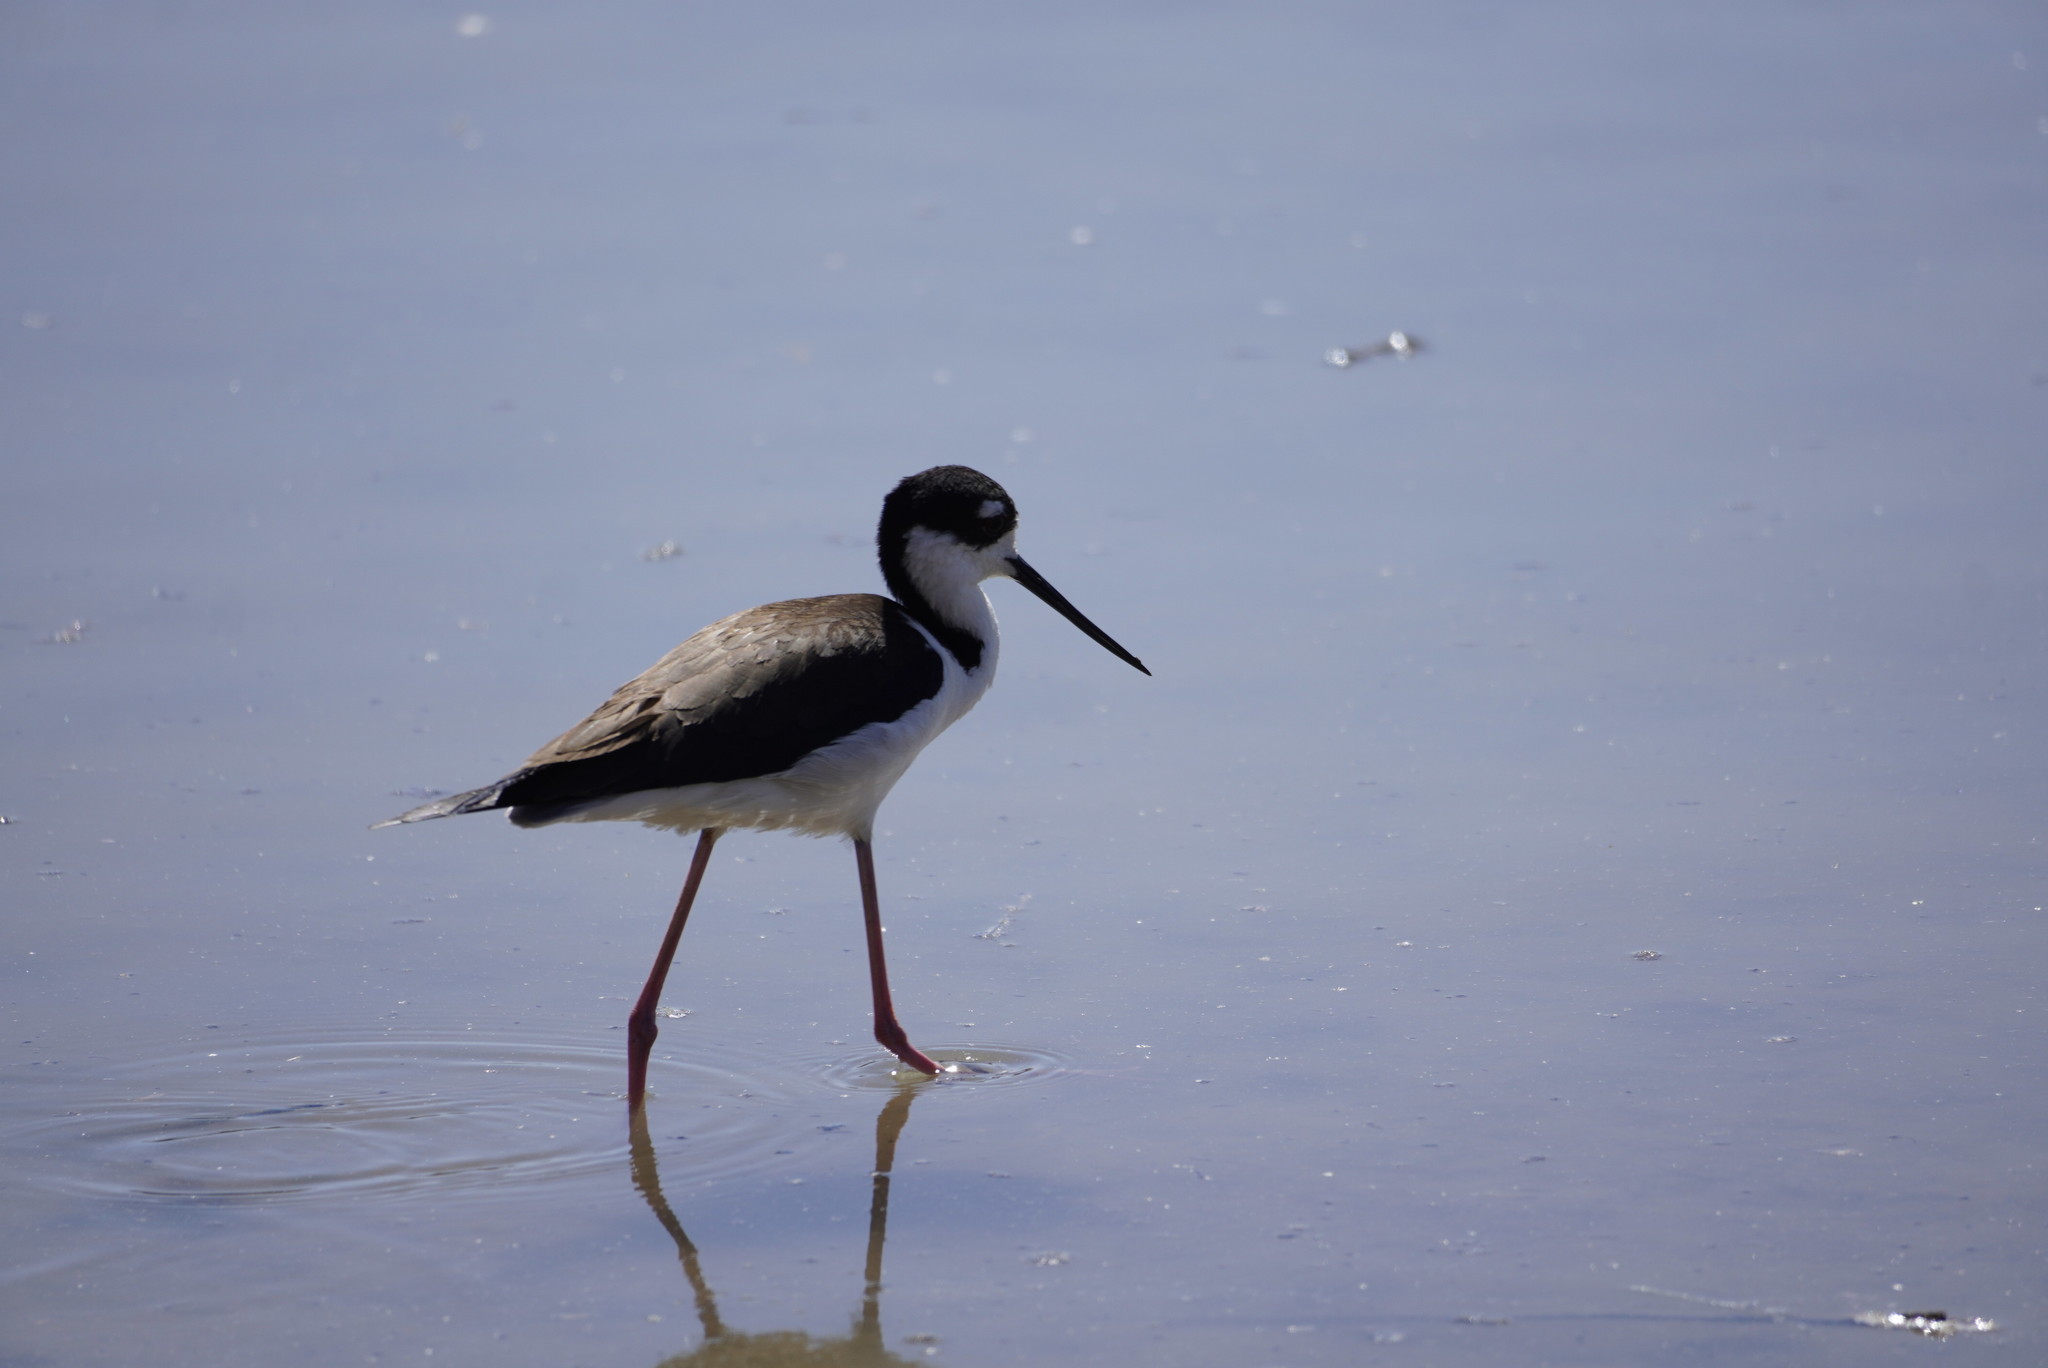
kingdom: Animalia
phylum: Chordata
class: Aves
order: Charadriiformes
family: Recurvirostridae
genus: Himantopus
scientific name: Himantopus mexicanus
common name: Black-necked stilt
